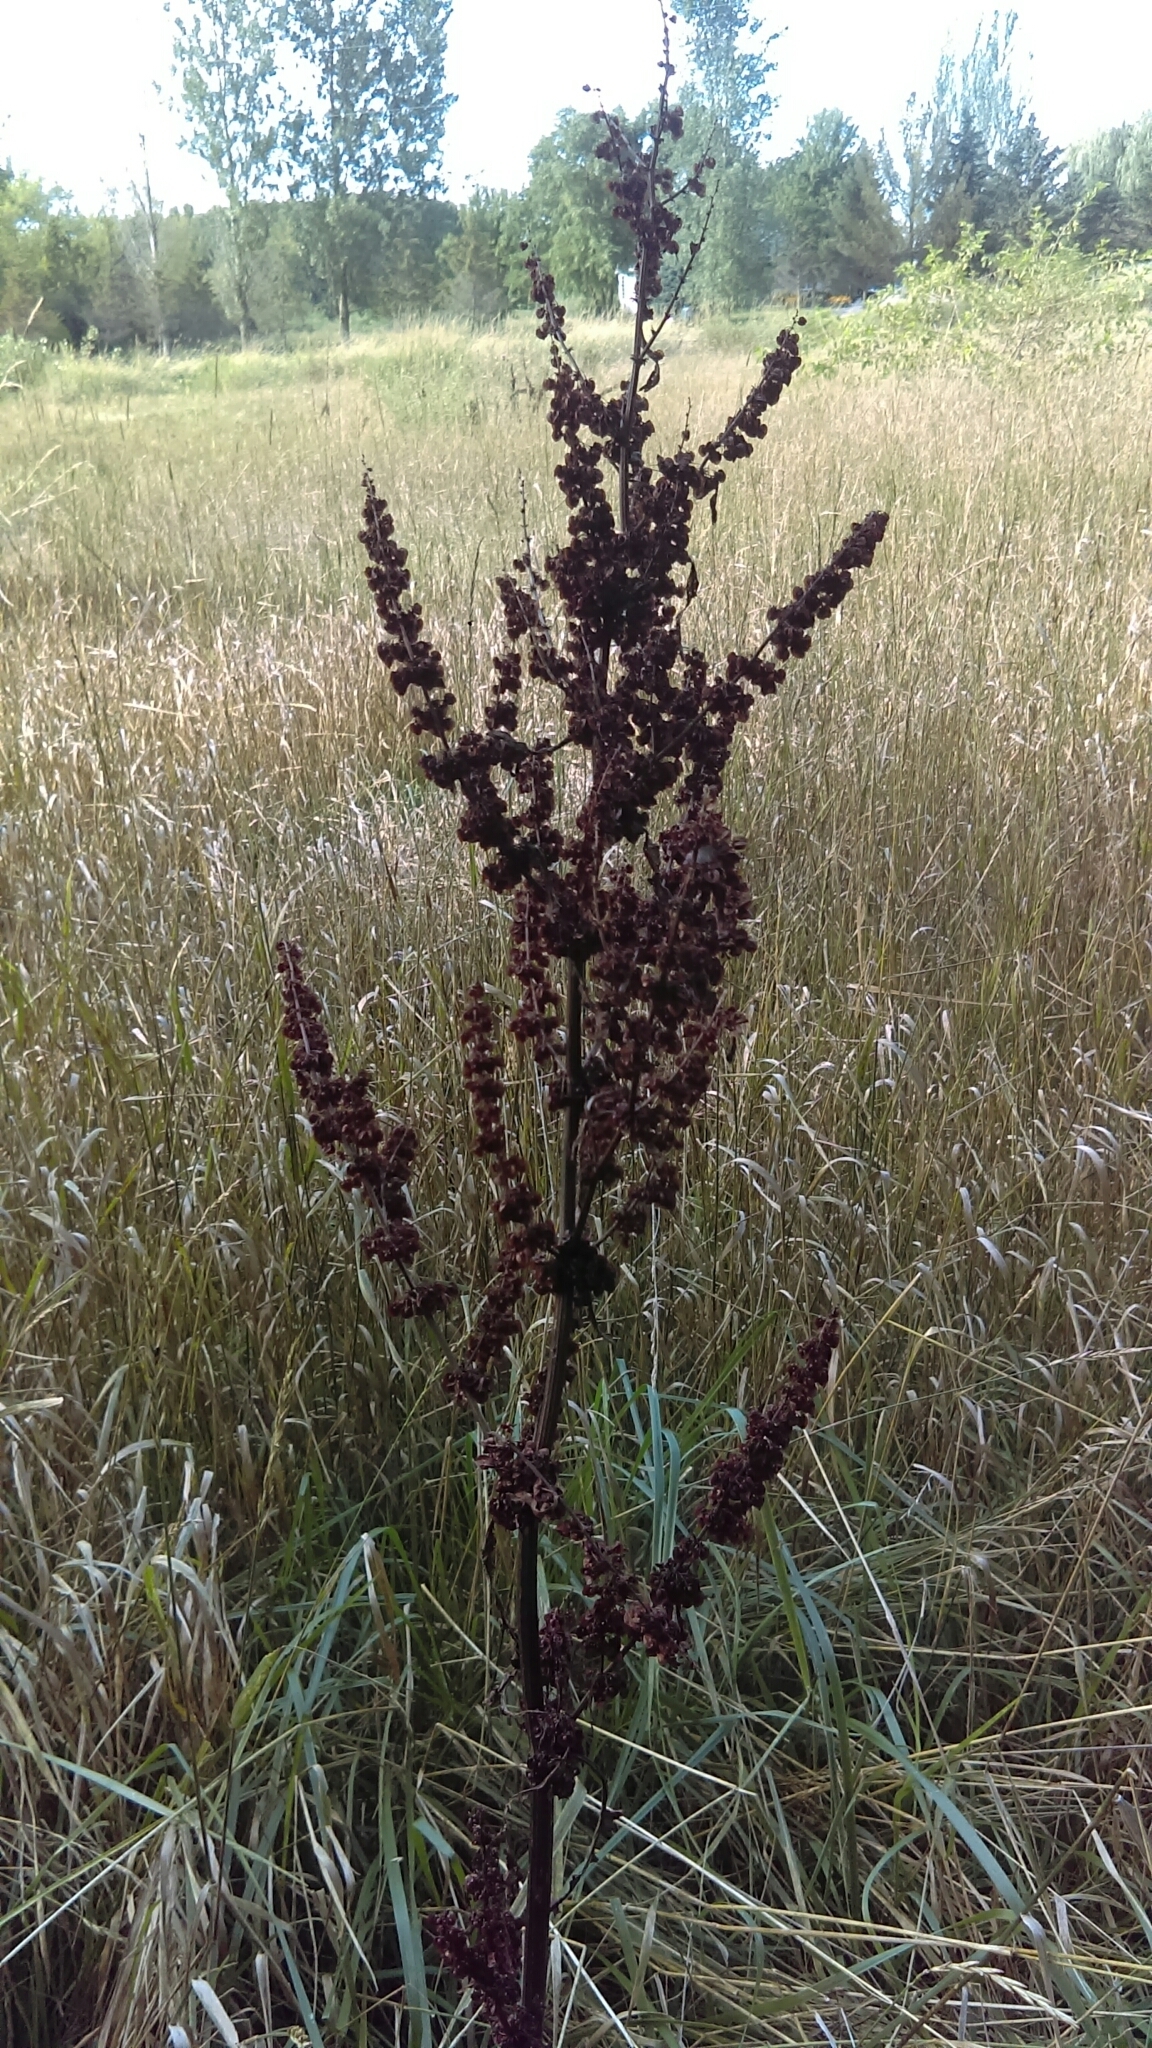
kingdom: Plantae
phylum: Tracheophyta
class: Magnoliopsida
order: Caryophyllales
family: Polygonaceae
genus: Rumex
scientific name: Rumex crispus
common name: Curled dock
